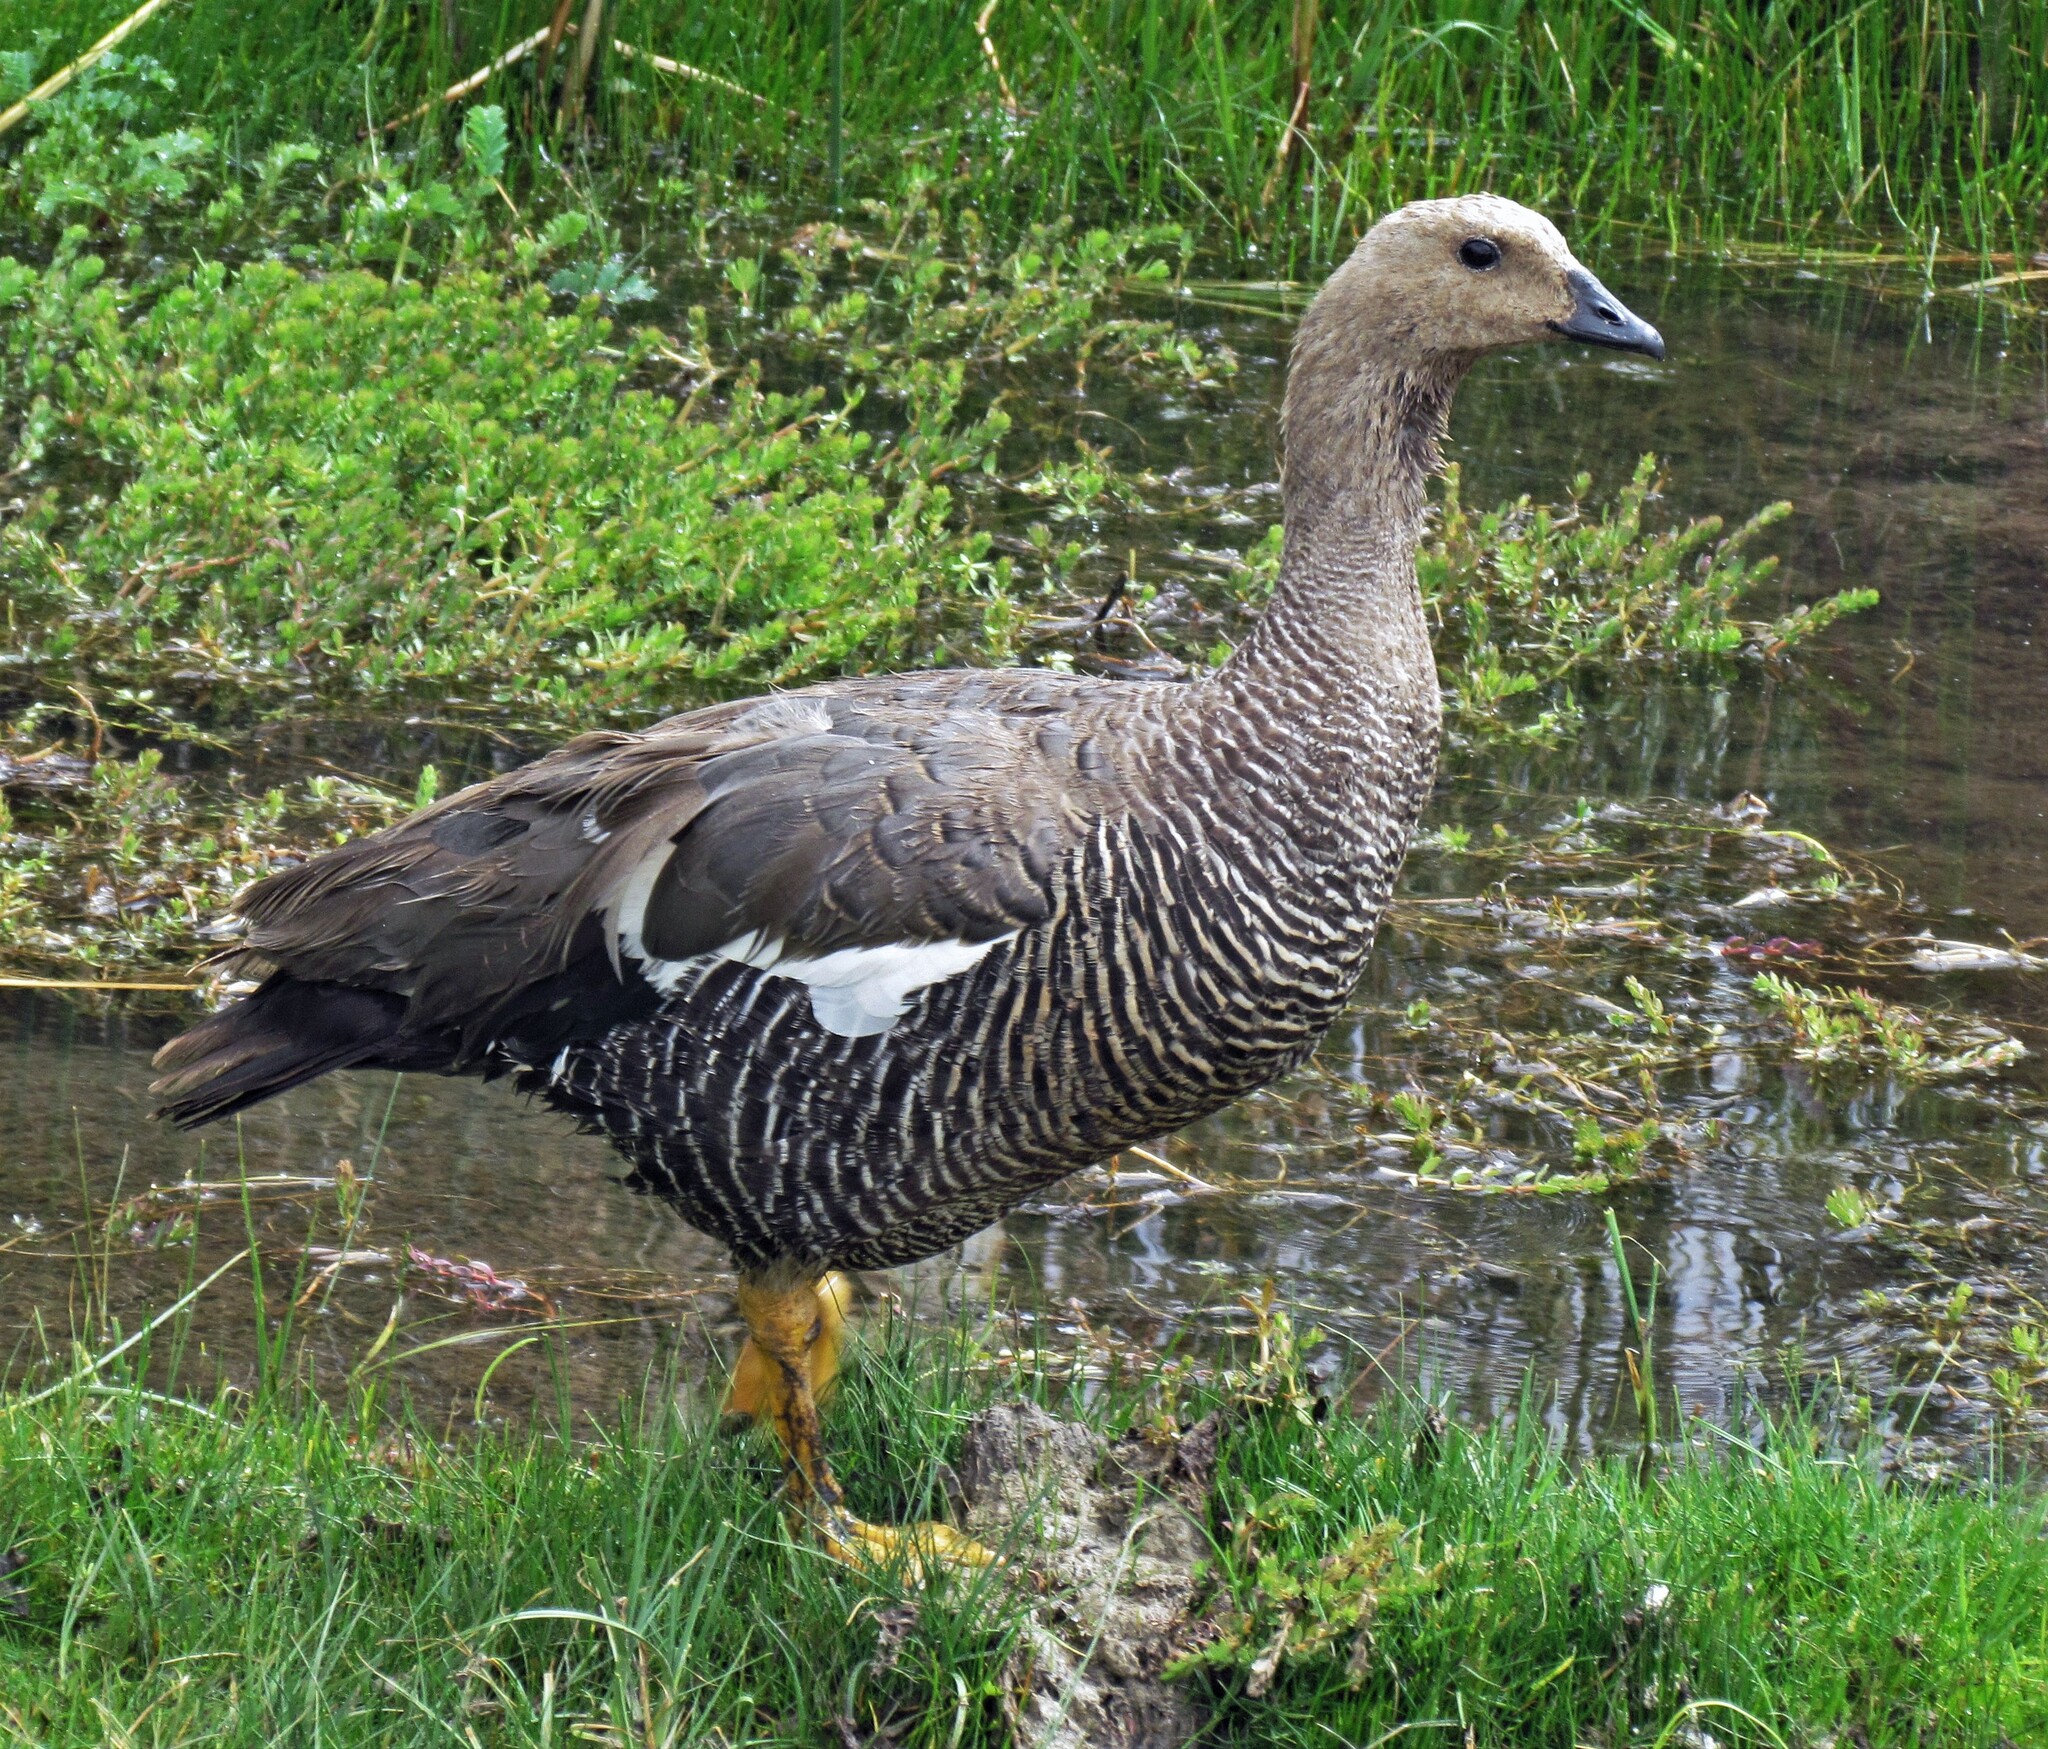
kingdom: Animalia
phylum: Chordata
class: Aves
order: Anseriformes
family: Anatidae
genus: Chloephaga
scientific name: Chloephaga picta
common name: Upland goose
